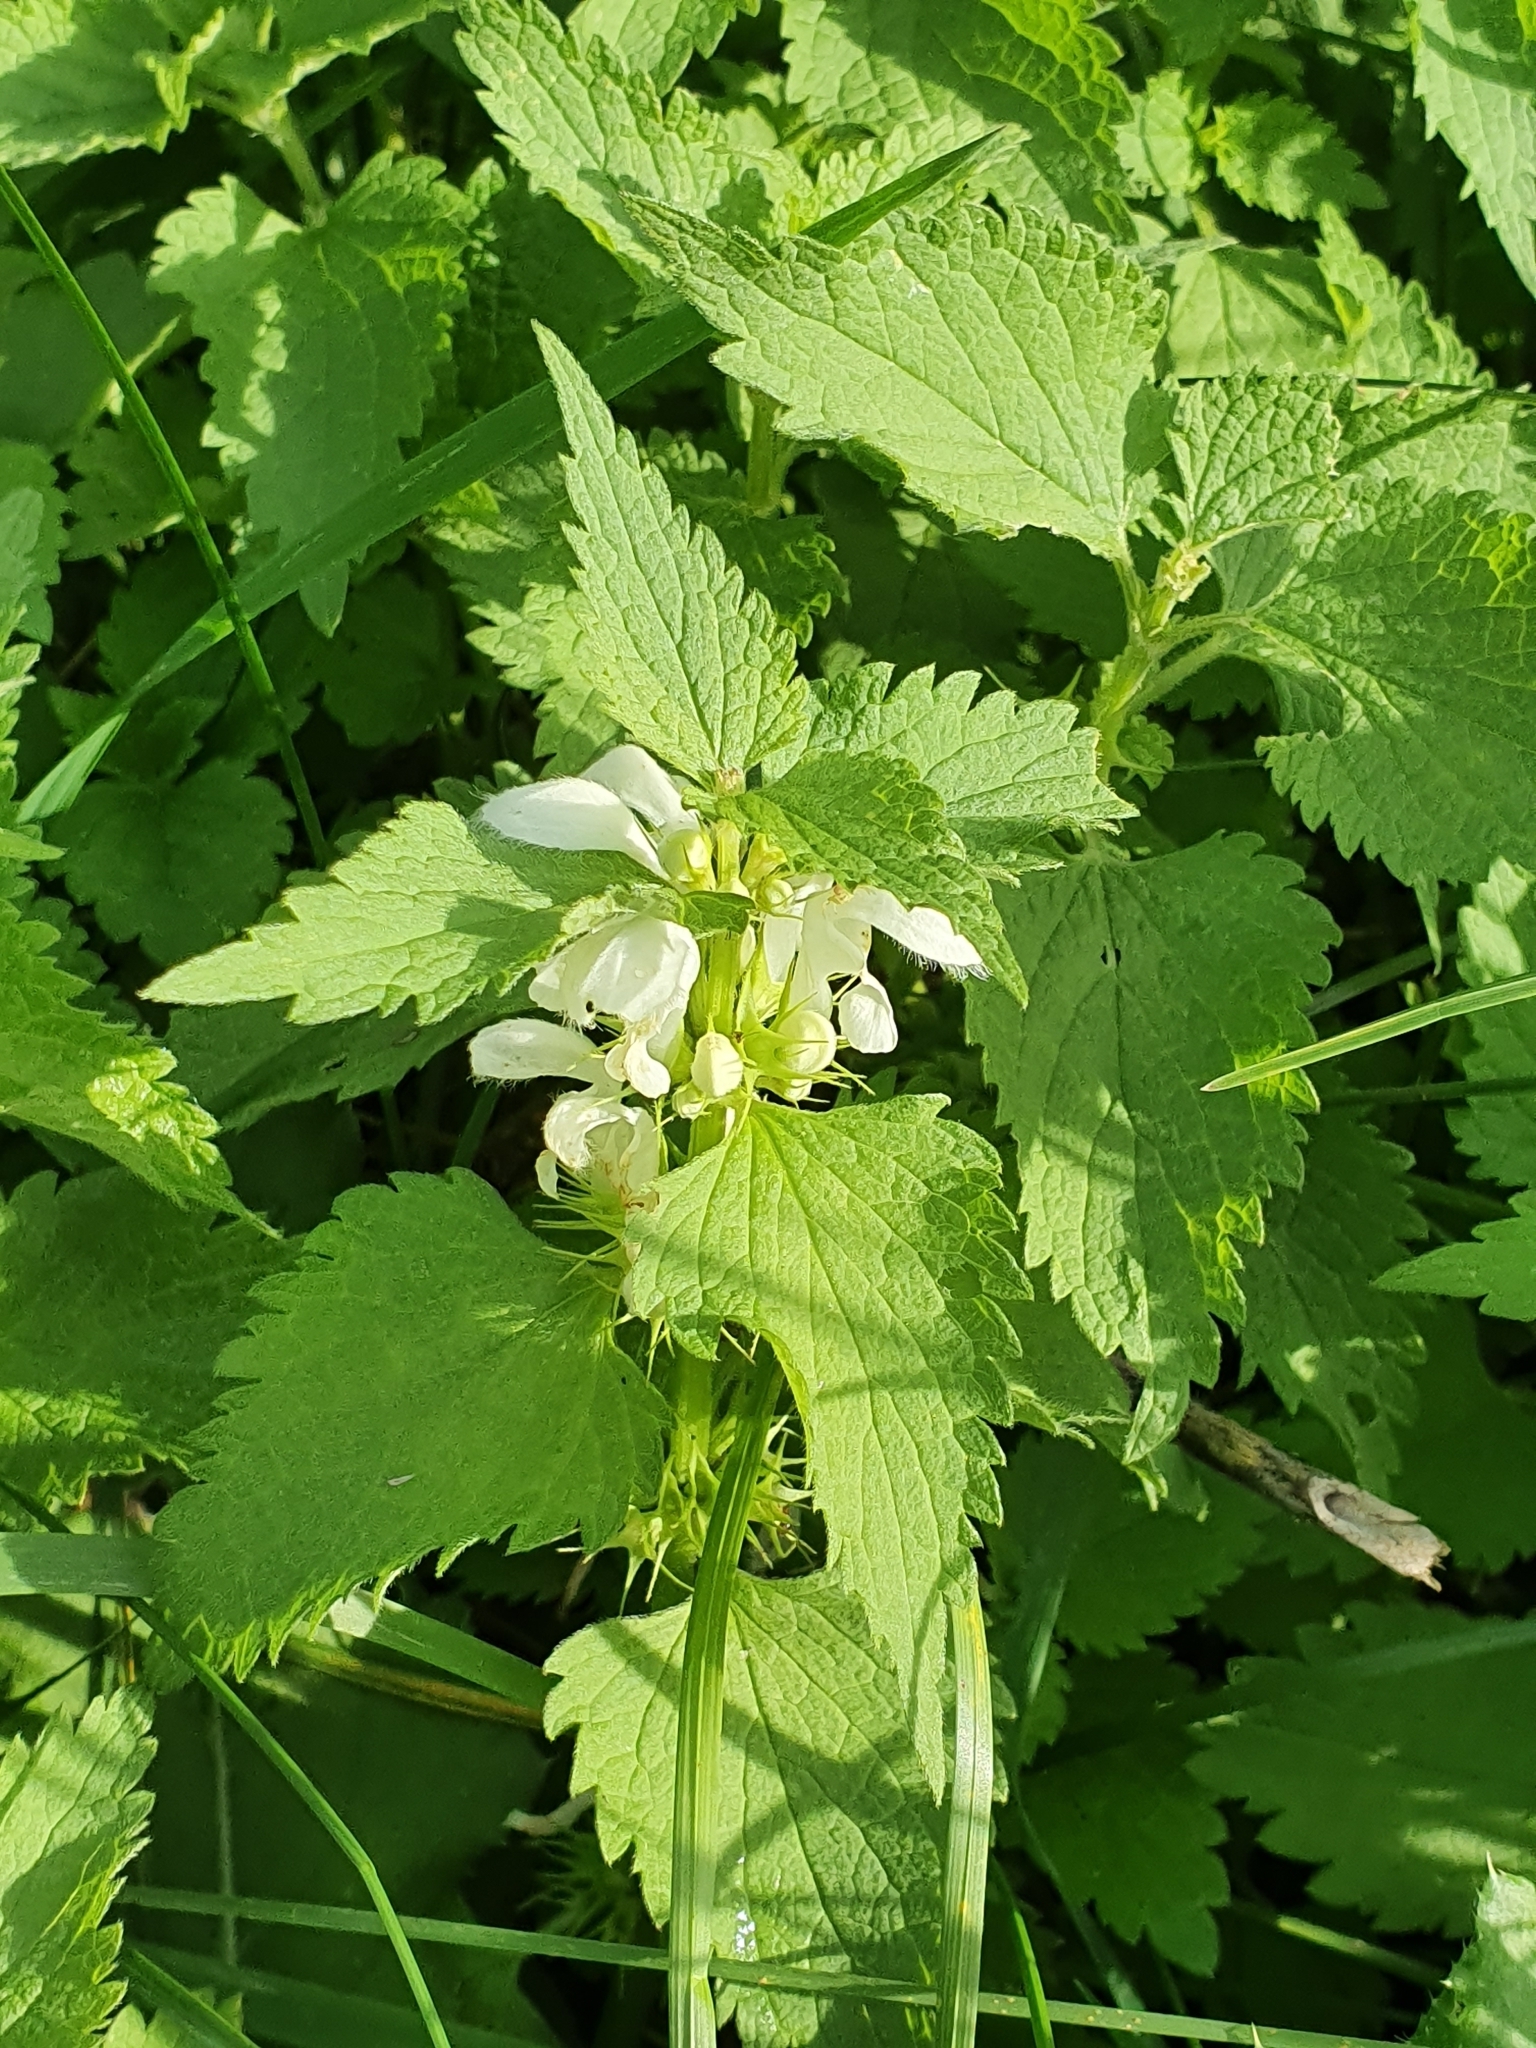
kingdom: Plantae
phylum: Tracheophyta
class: Magnoliopsida
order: Lamiales
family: Lamiaceae
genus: Lamium
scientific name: Lamium album
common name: White dead-nettle
